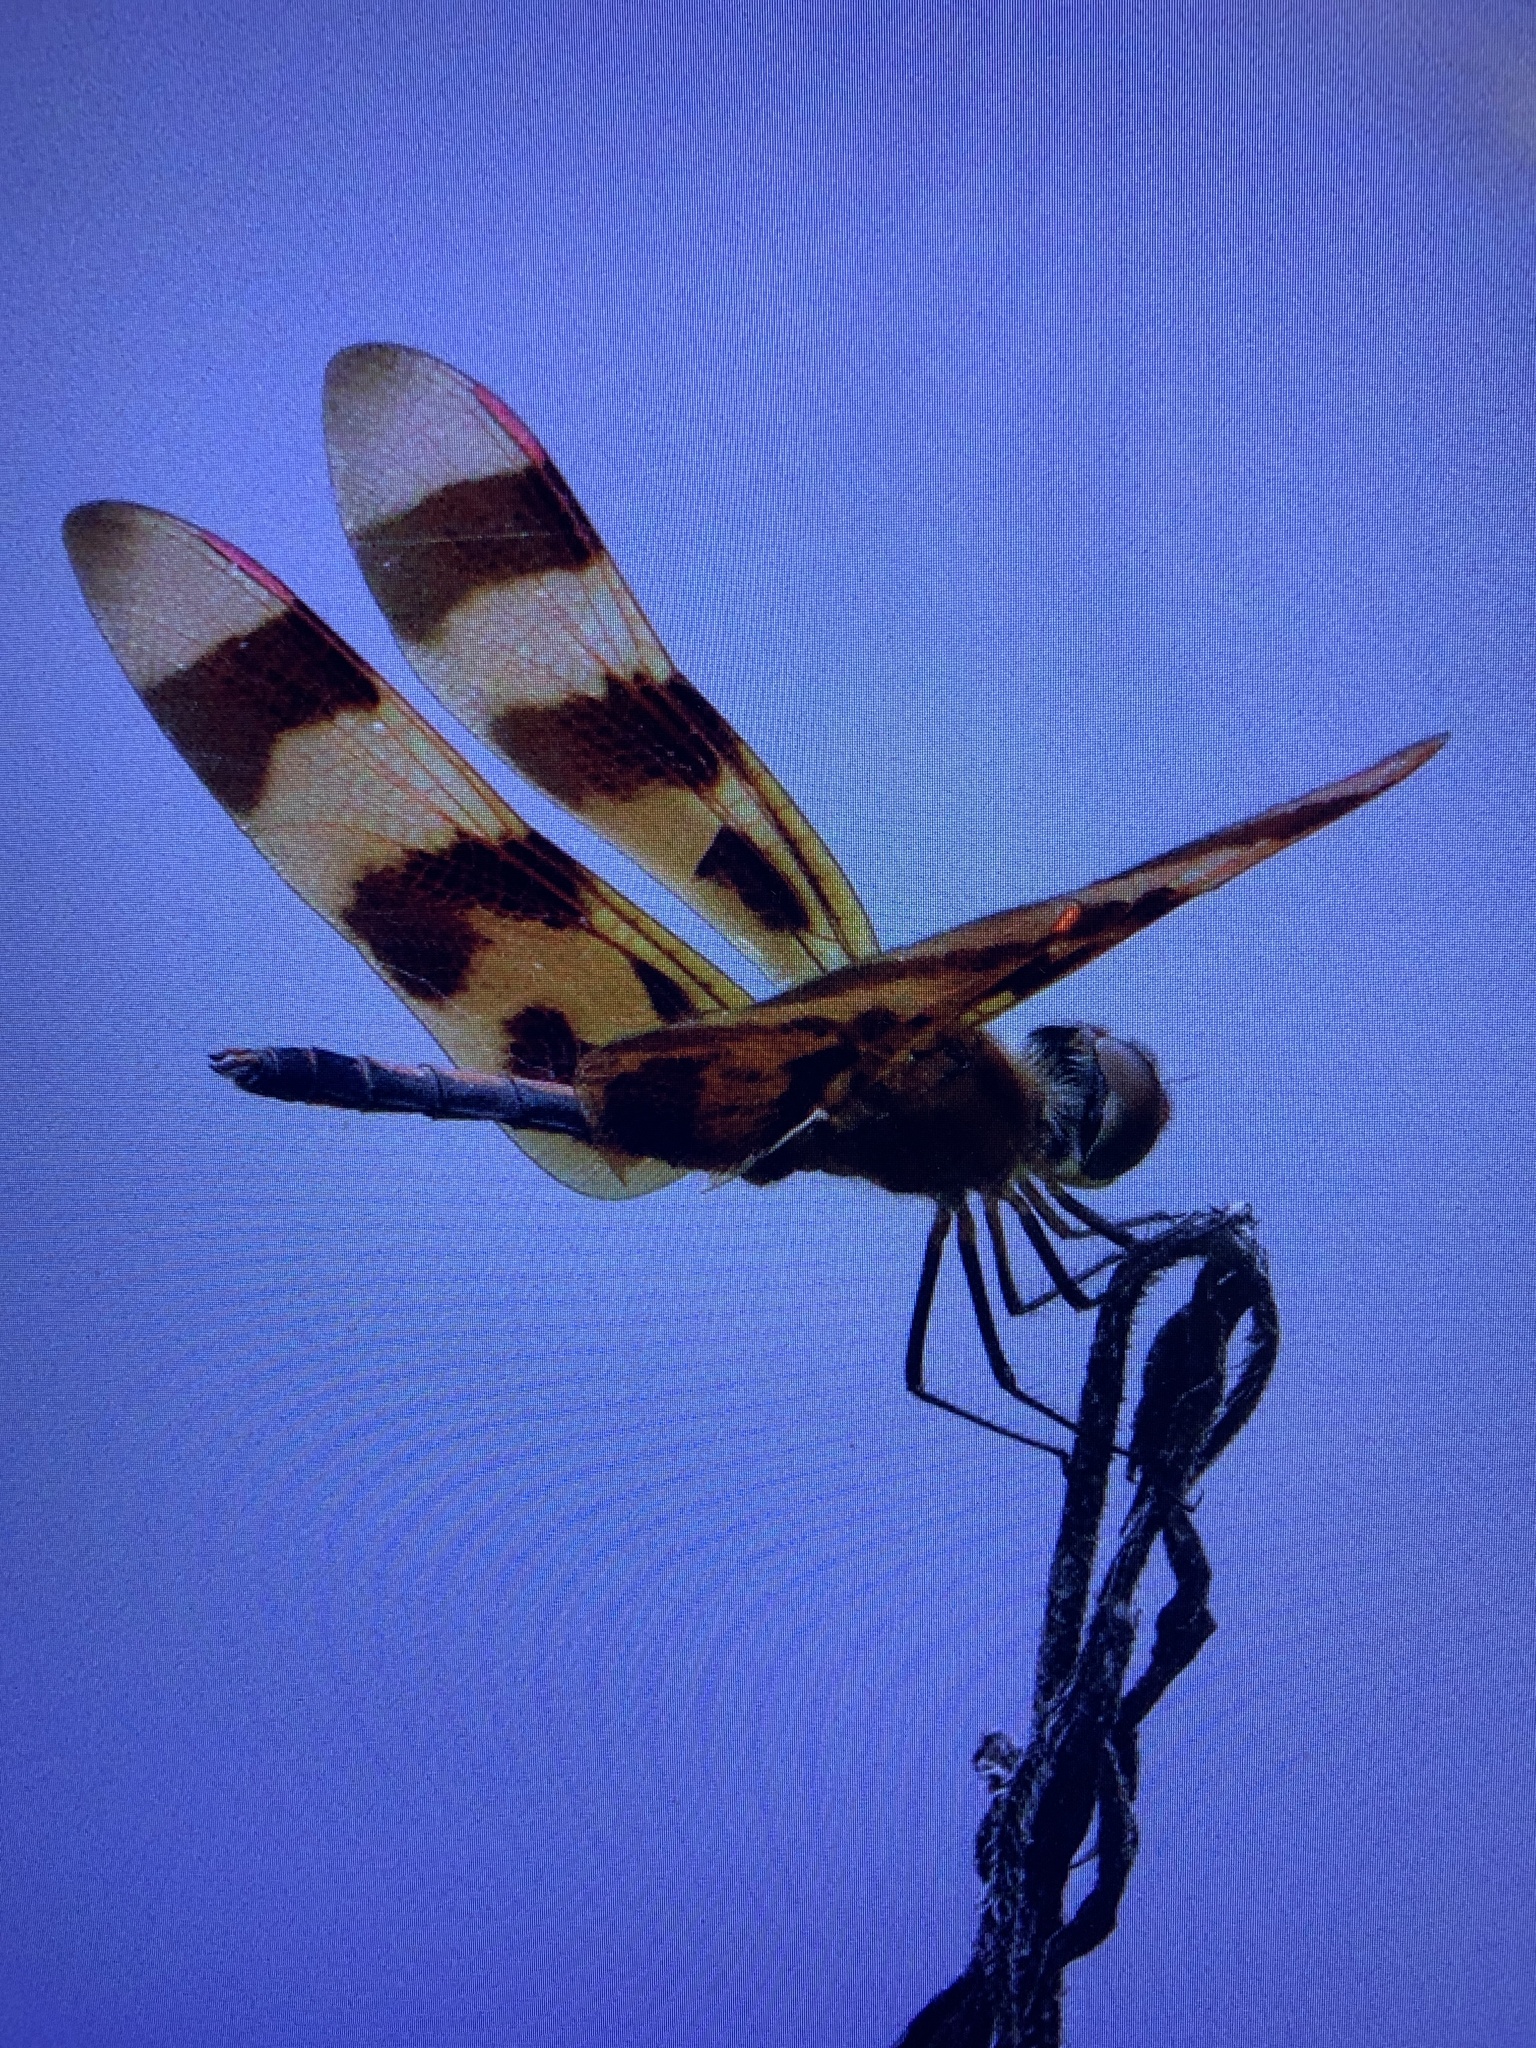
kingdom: Animalia
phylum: Arthropoda
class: Insecta
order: Odonata
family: Libellulidae
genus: Celithemis
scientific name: Celithemis eponina
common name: Halloween pennant
